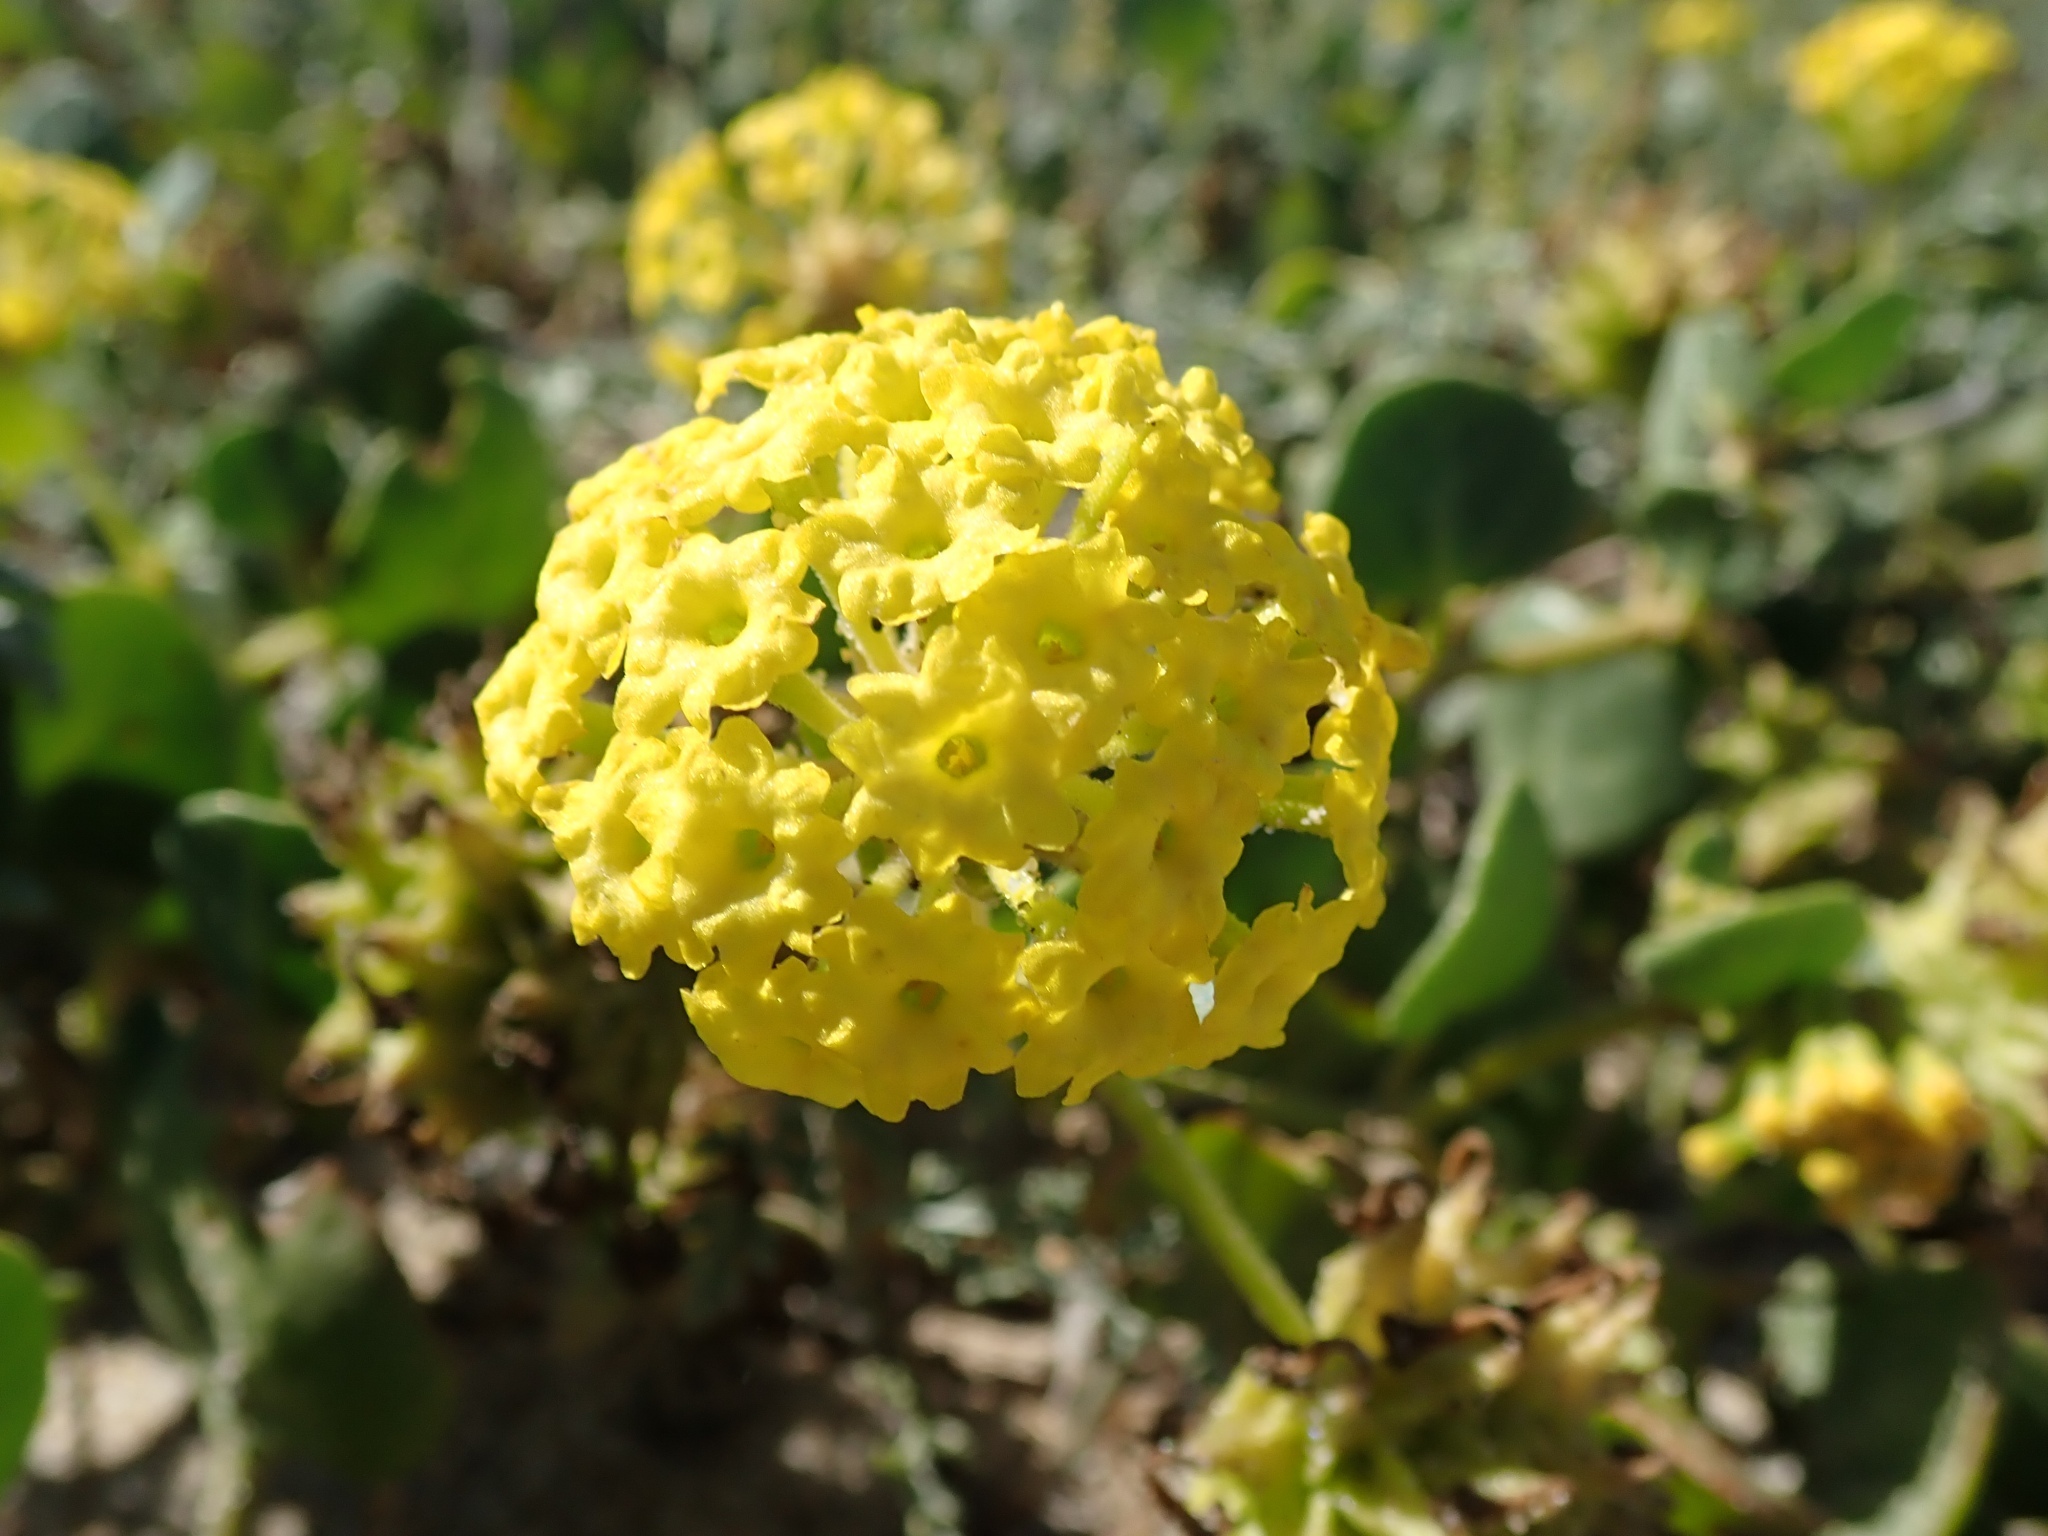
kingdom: Plantae
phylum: Tracheophyta
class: Magnoliopsida
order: Caryophyllales
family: Nyctaginaceae
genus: Abronia
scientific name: Abronia latifolia
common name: Yellow sand-verbena
